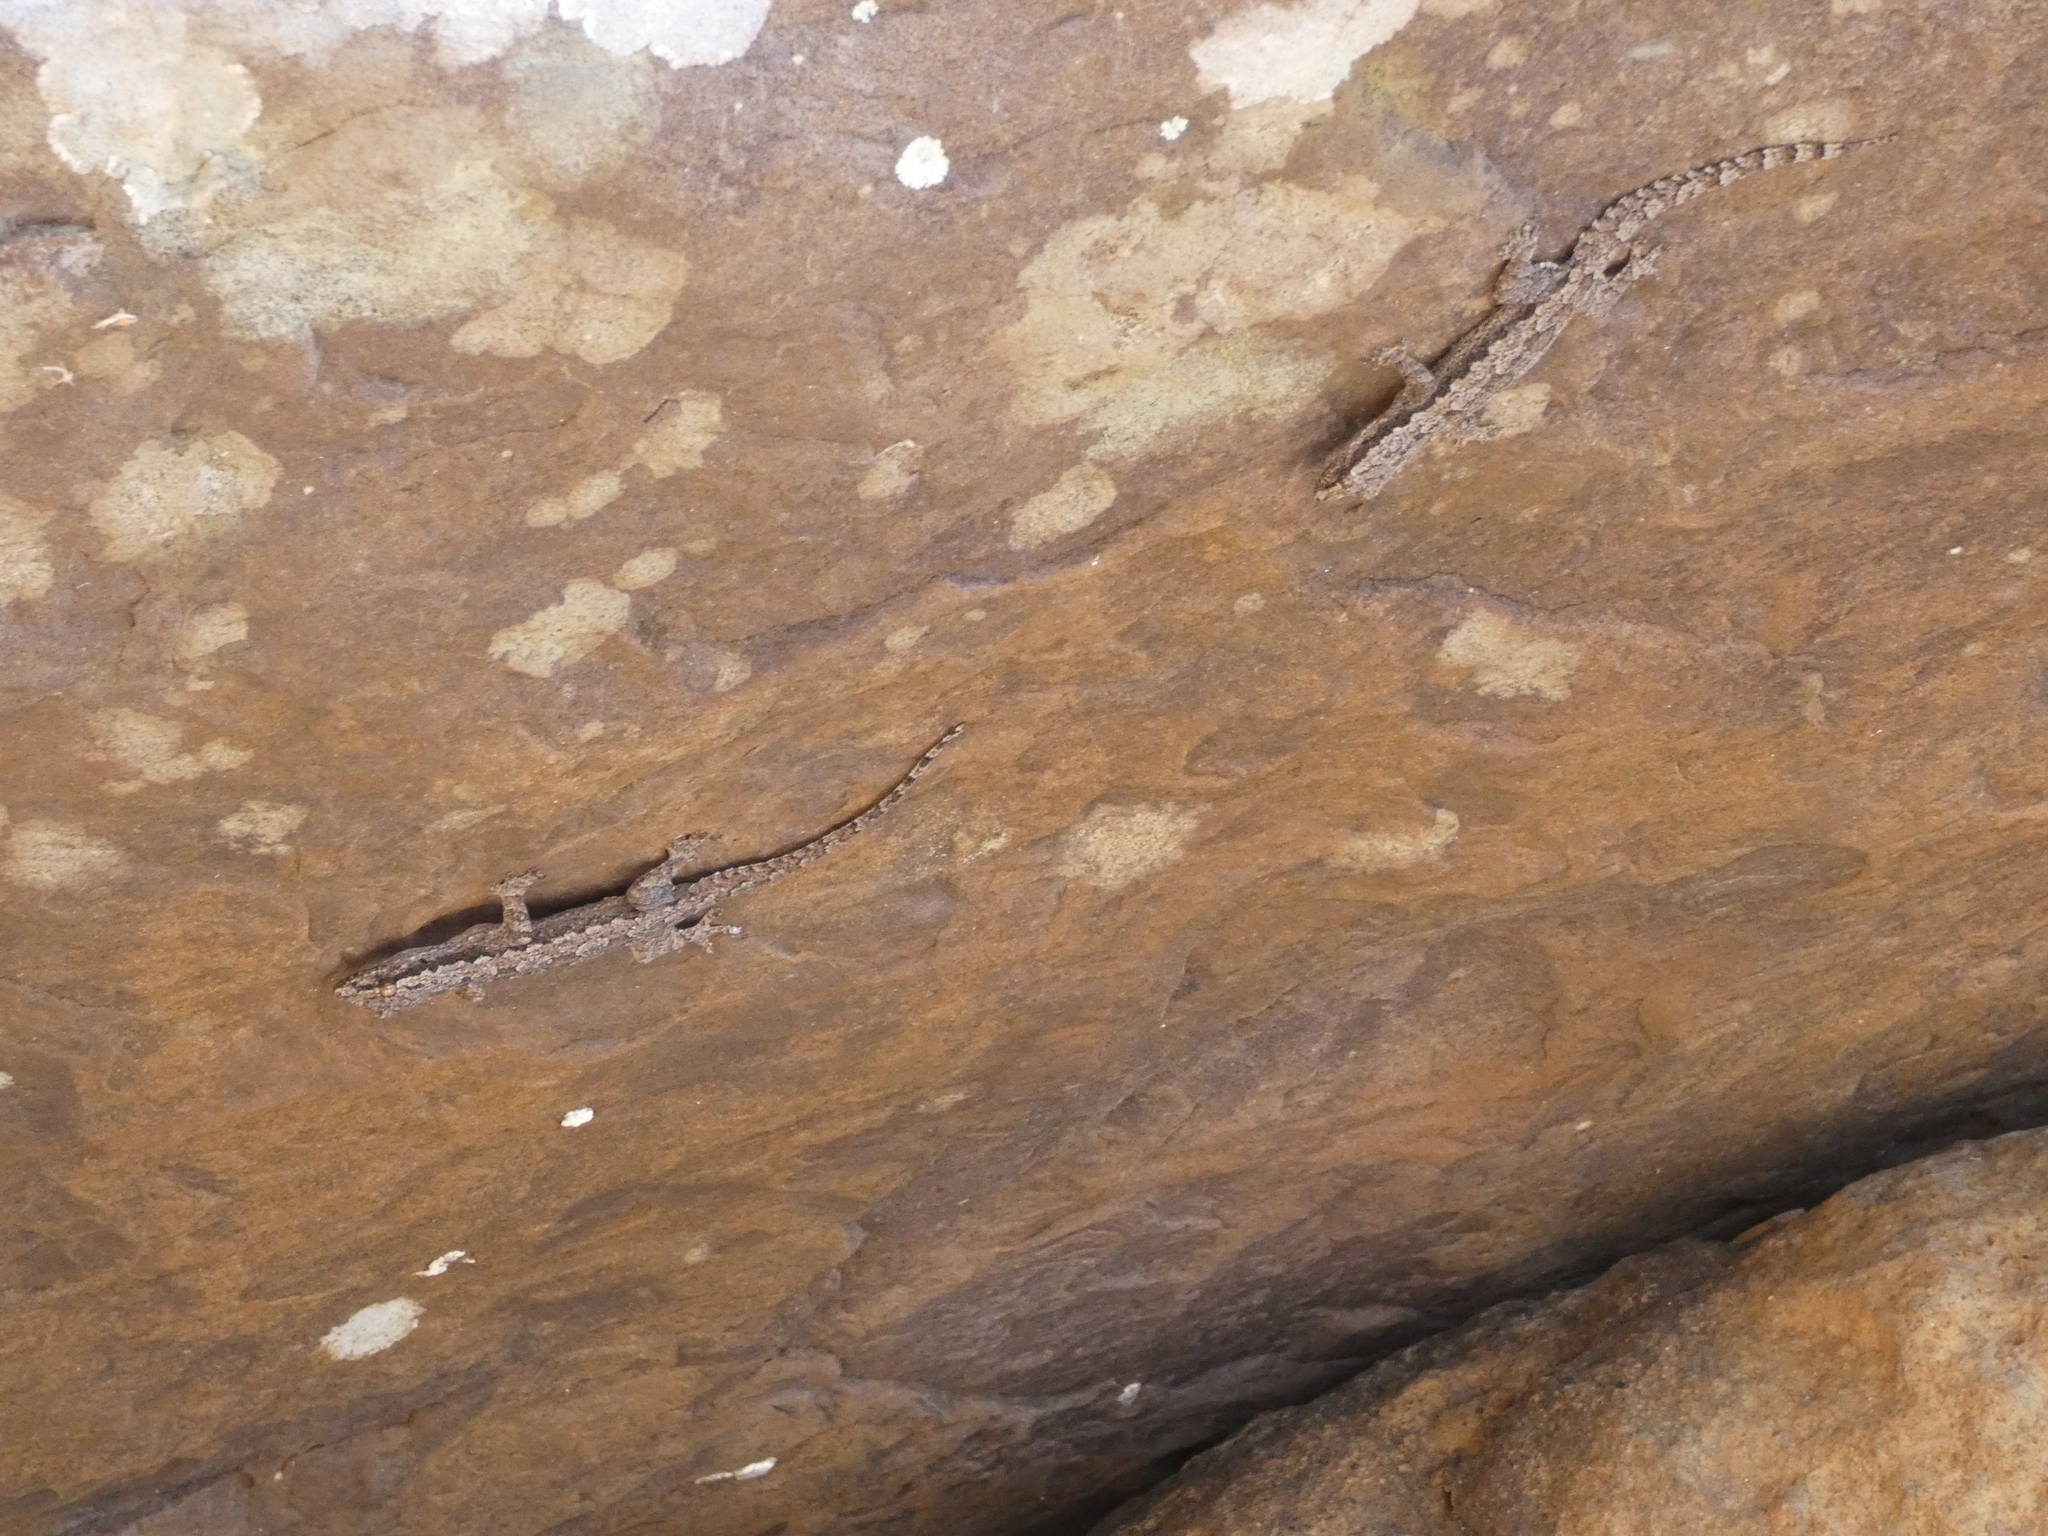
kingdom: Animalia
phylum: Chordata
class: Squamata
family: Gekkonidae
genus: Hemidactylus
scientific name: Hemidactylus platyurus
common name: Flat-tailed house gecko
